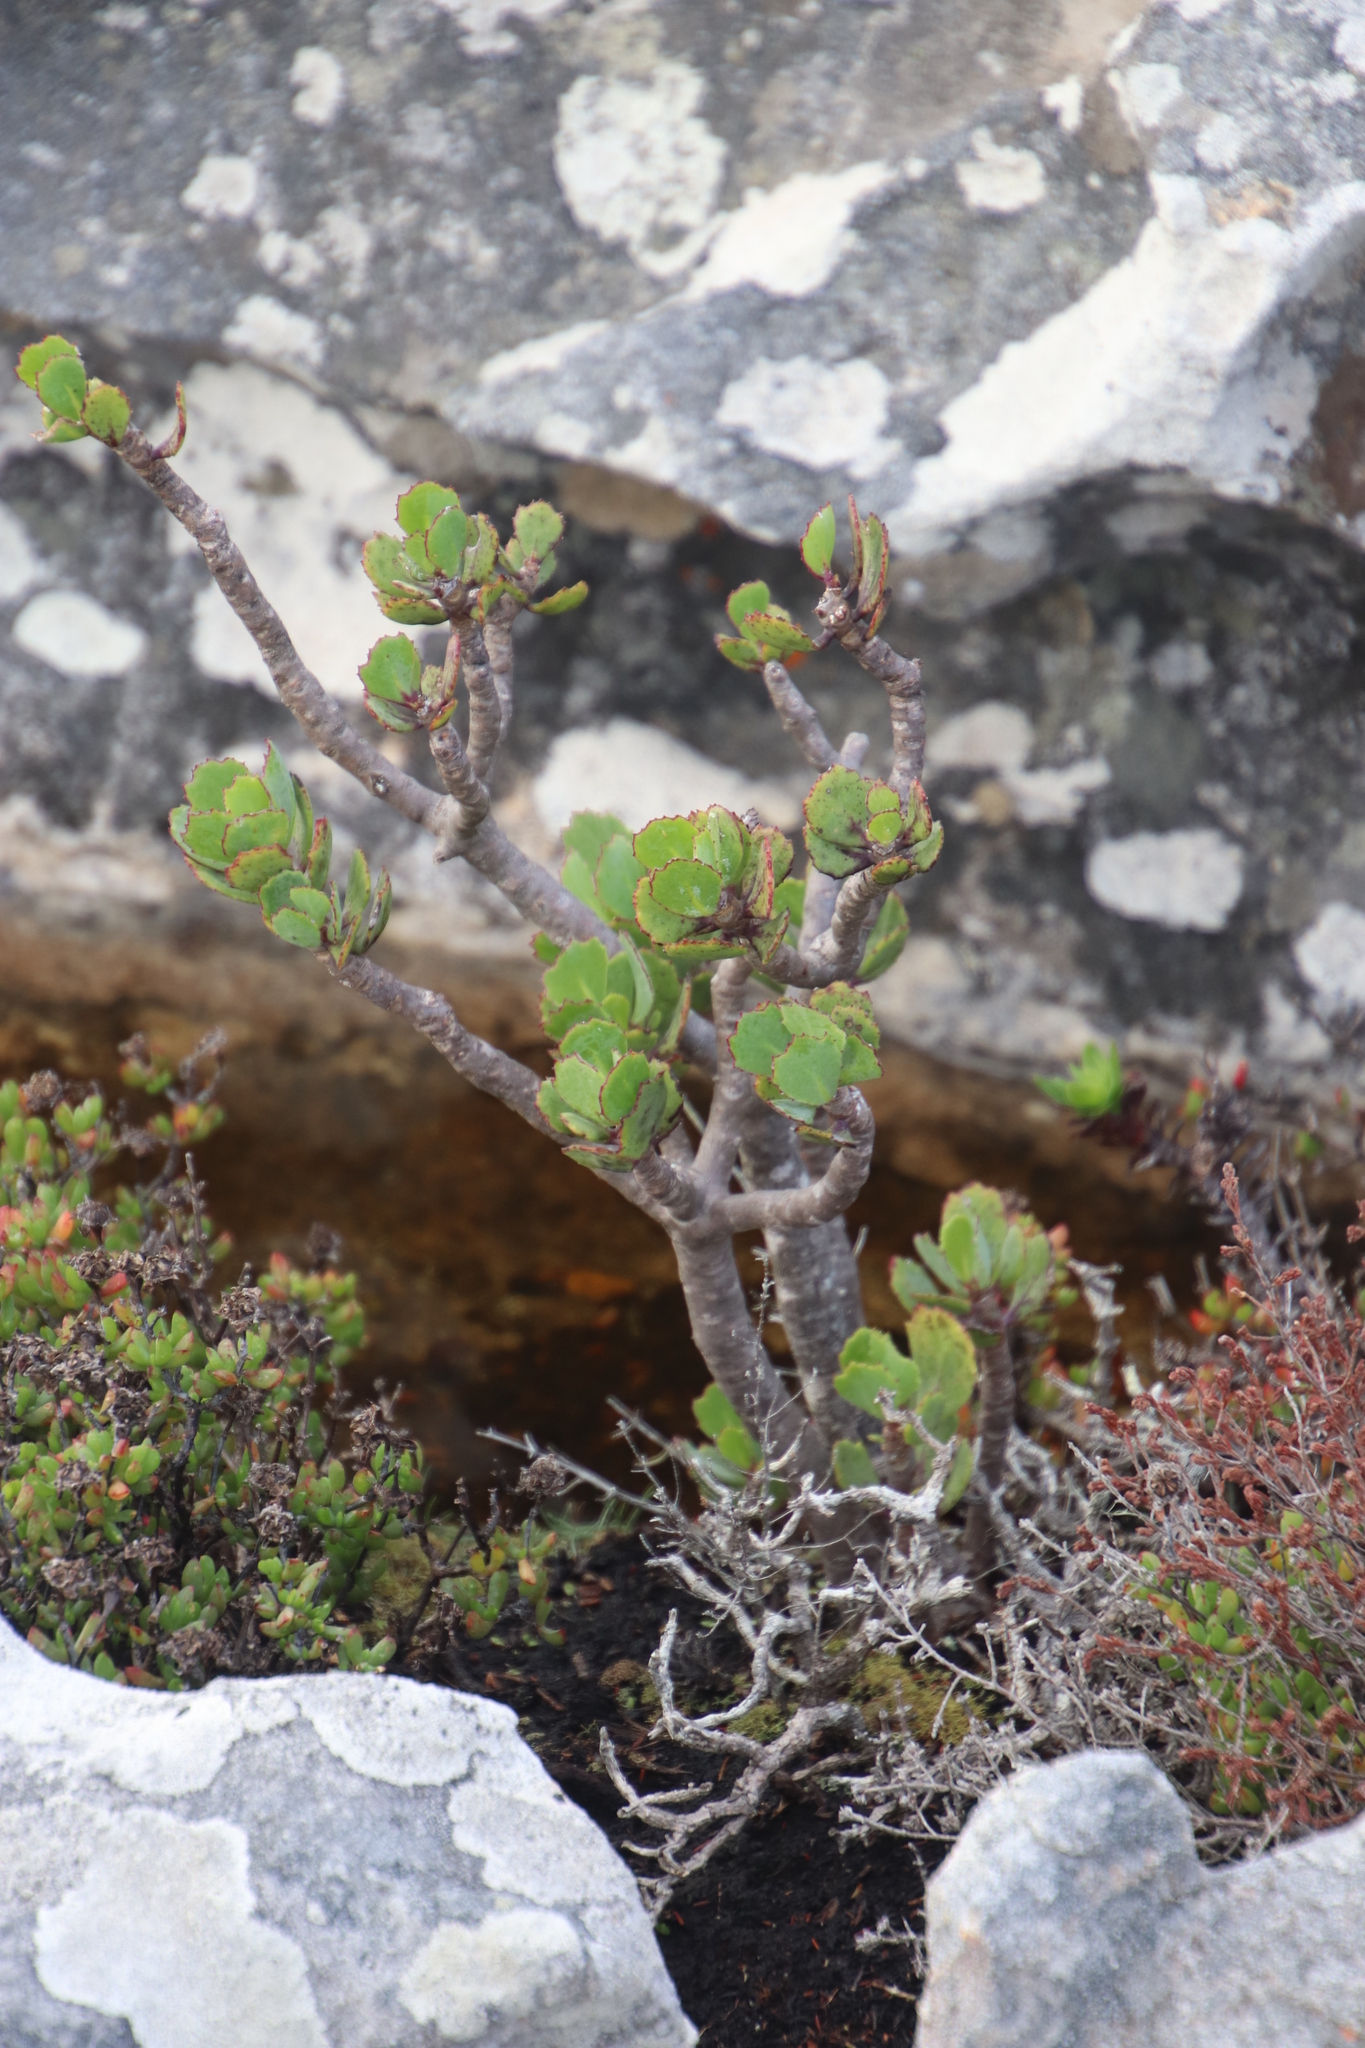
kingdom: Plantae
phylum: Tracheophyta
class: Magnoliopsida
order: Asterales
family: Asteraceae
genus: Othonna
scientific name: Othonna dentata
